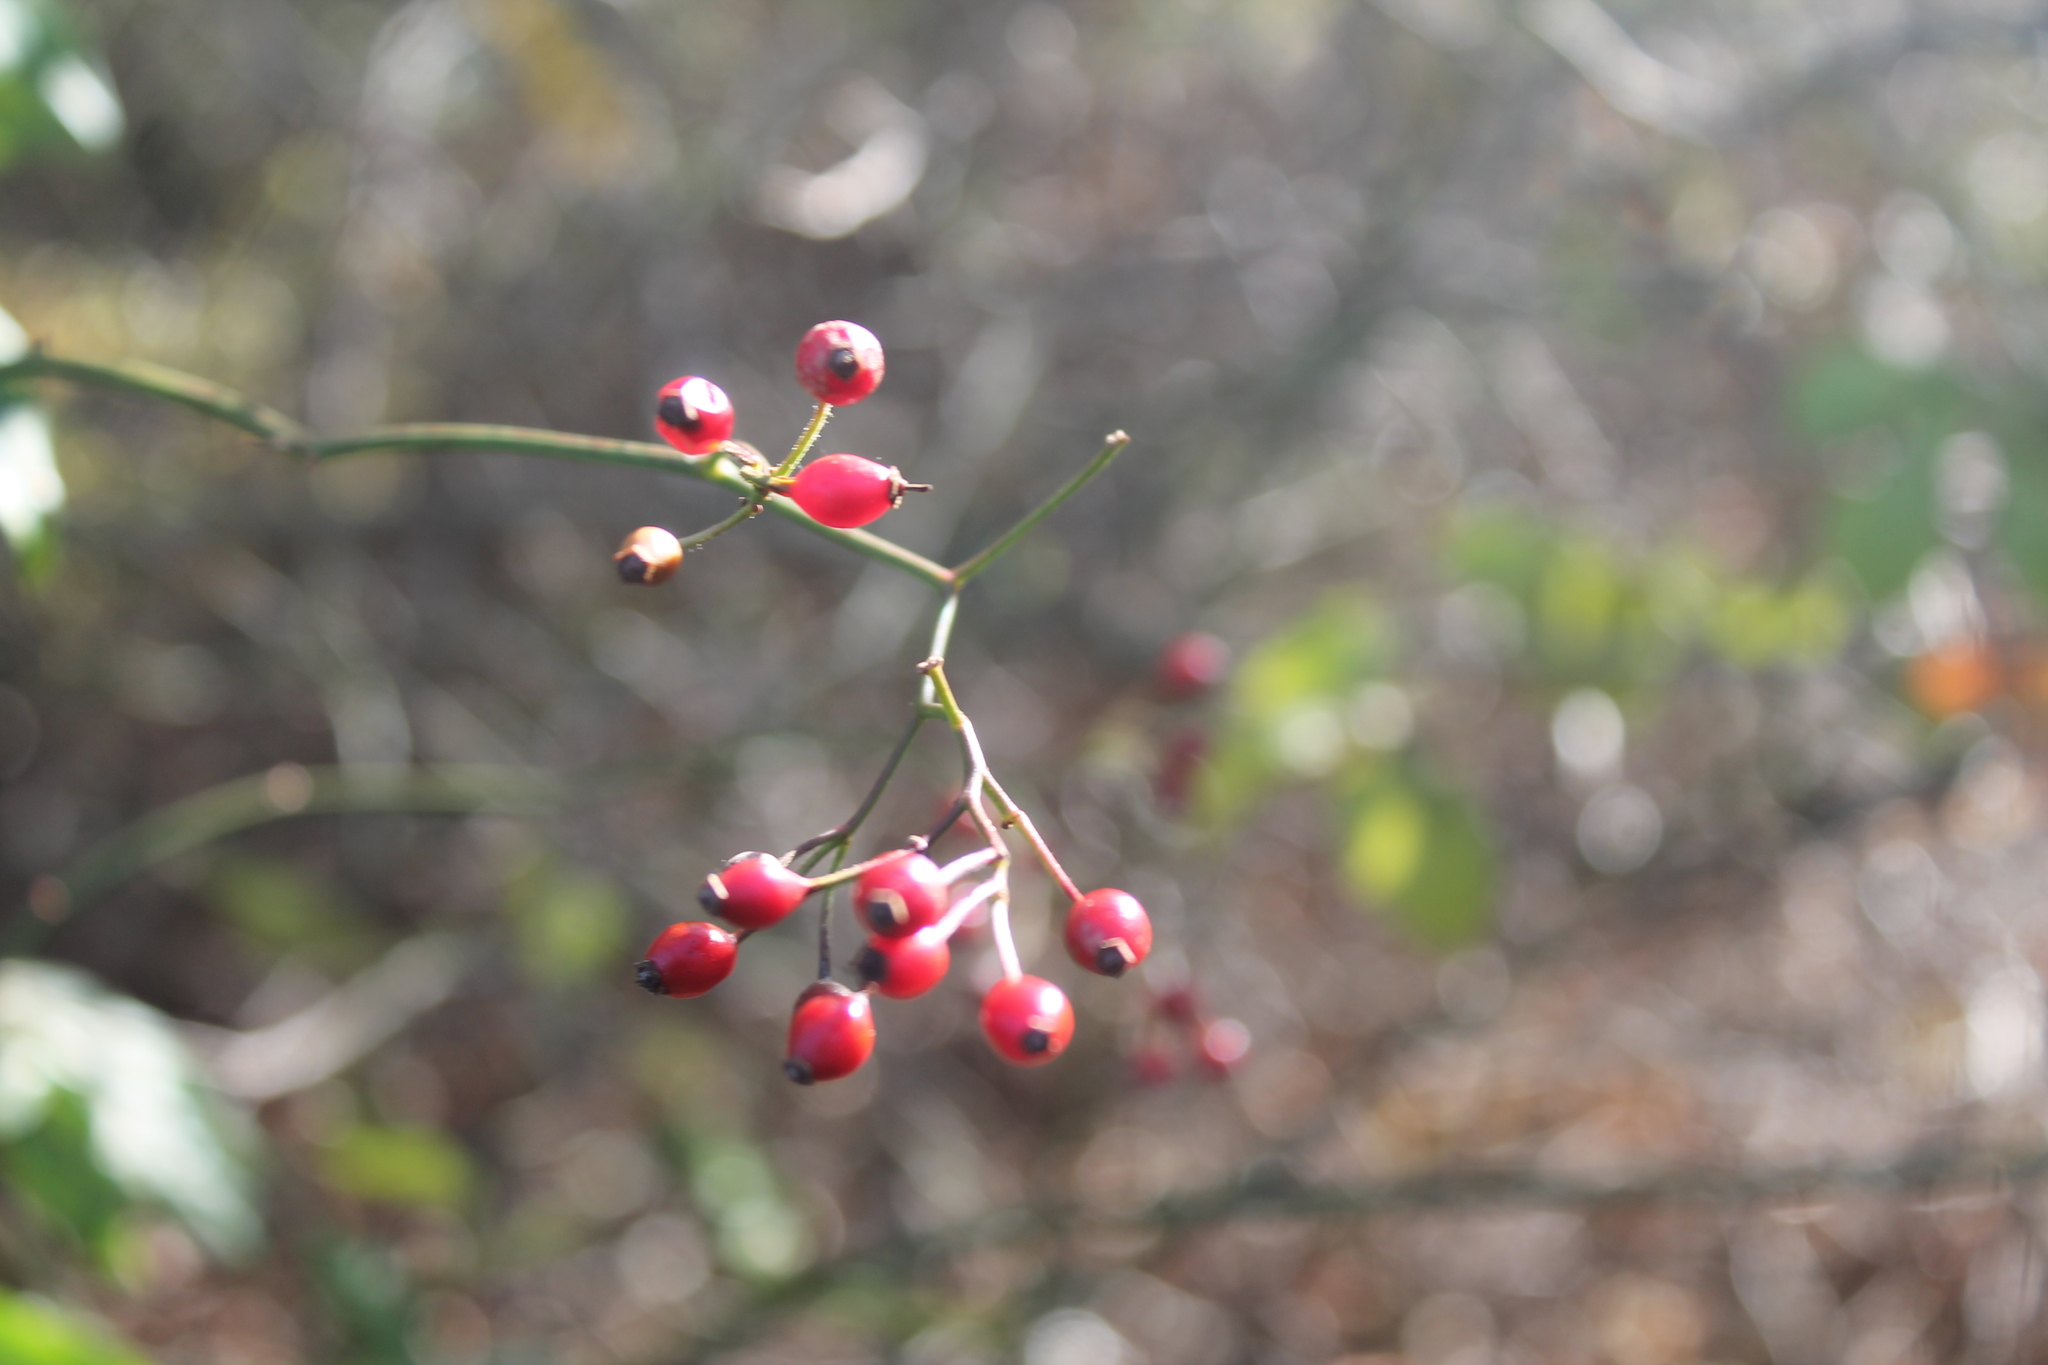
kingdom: Plantae
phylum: Tracheophyta
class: Magnoliopsida
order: Rosales
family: Rosaceae
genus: Rosa
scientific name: Rosa multiflora
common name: Multiflora rose
